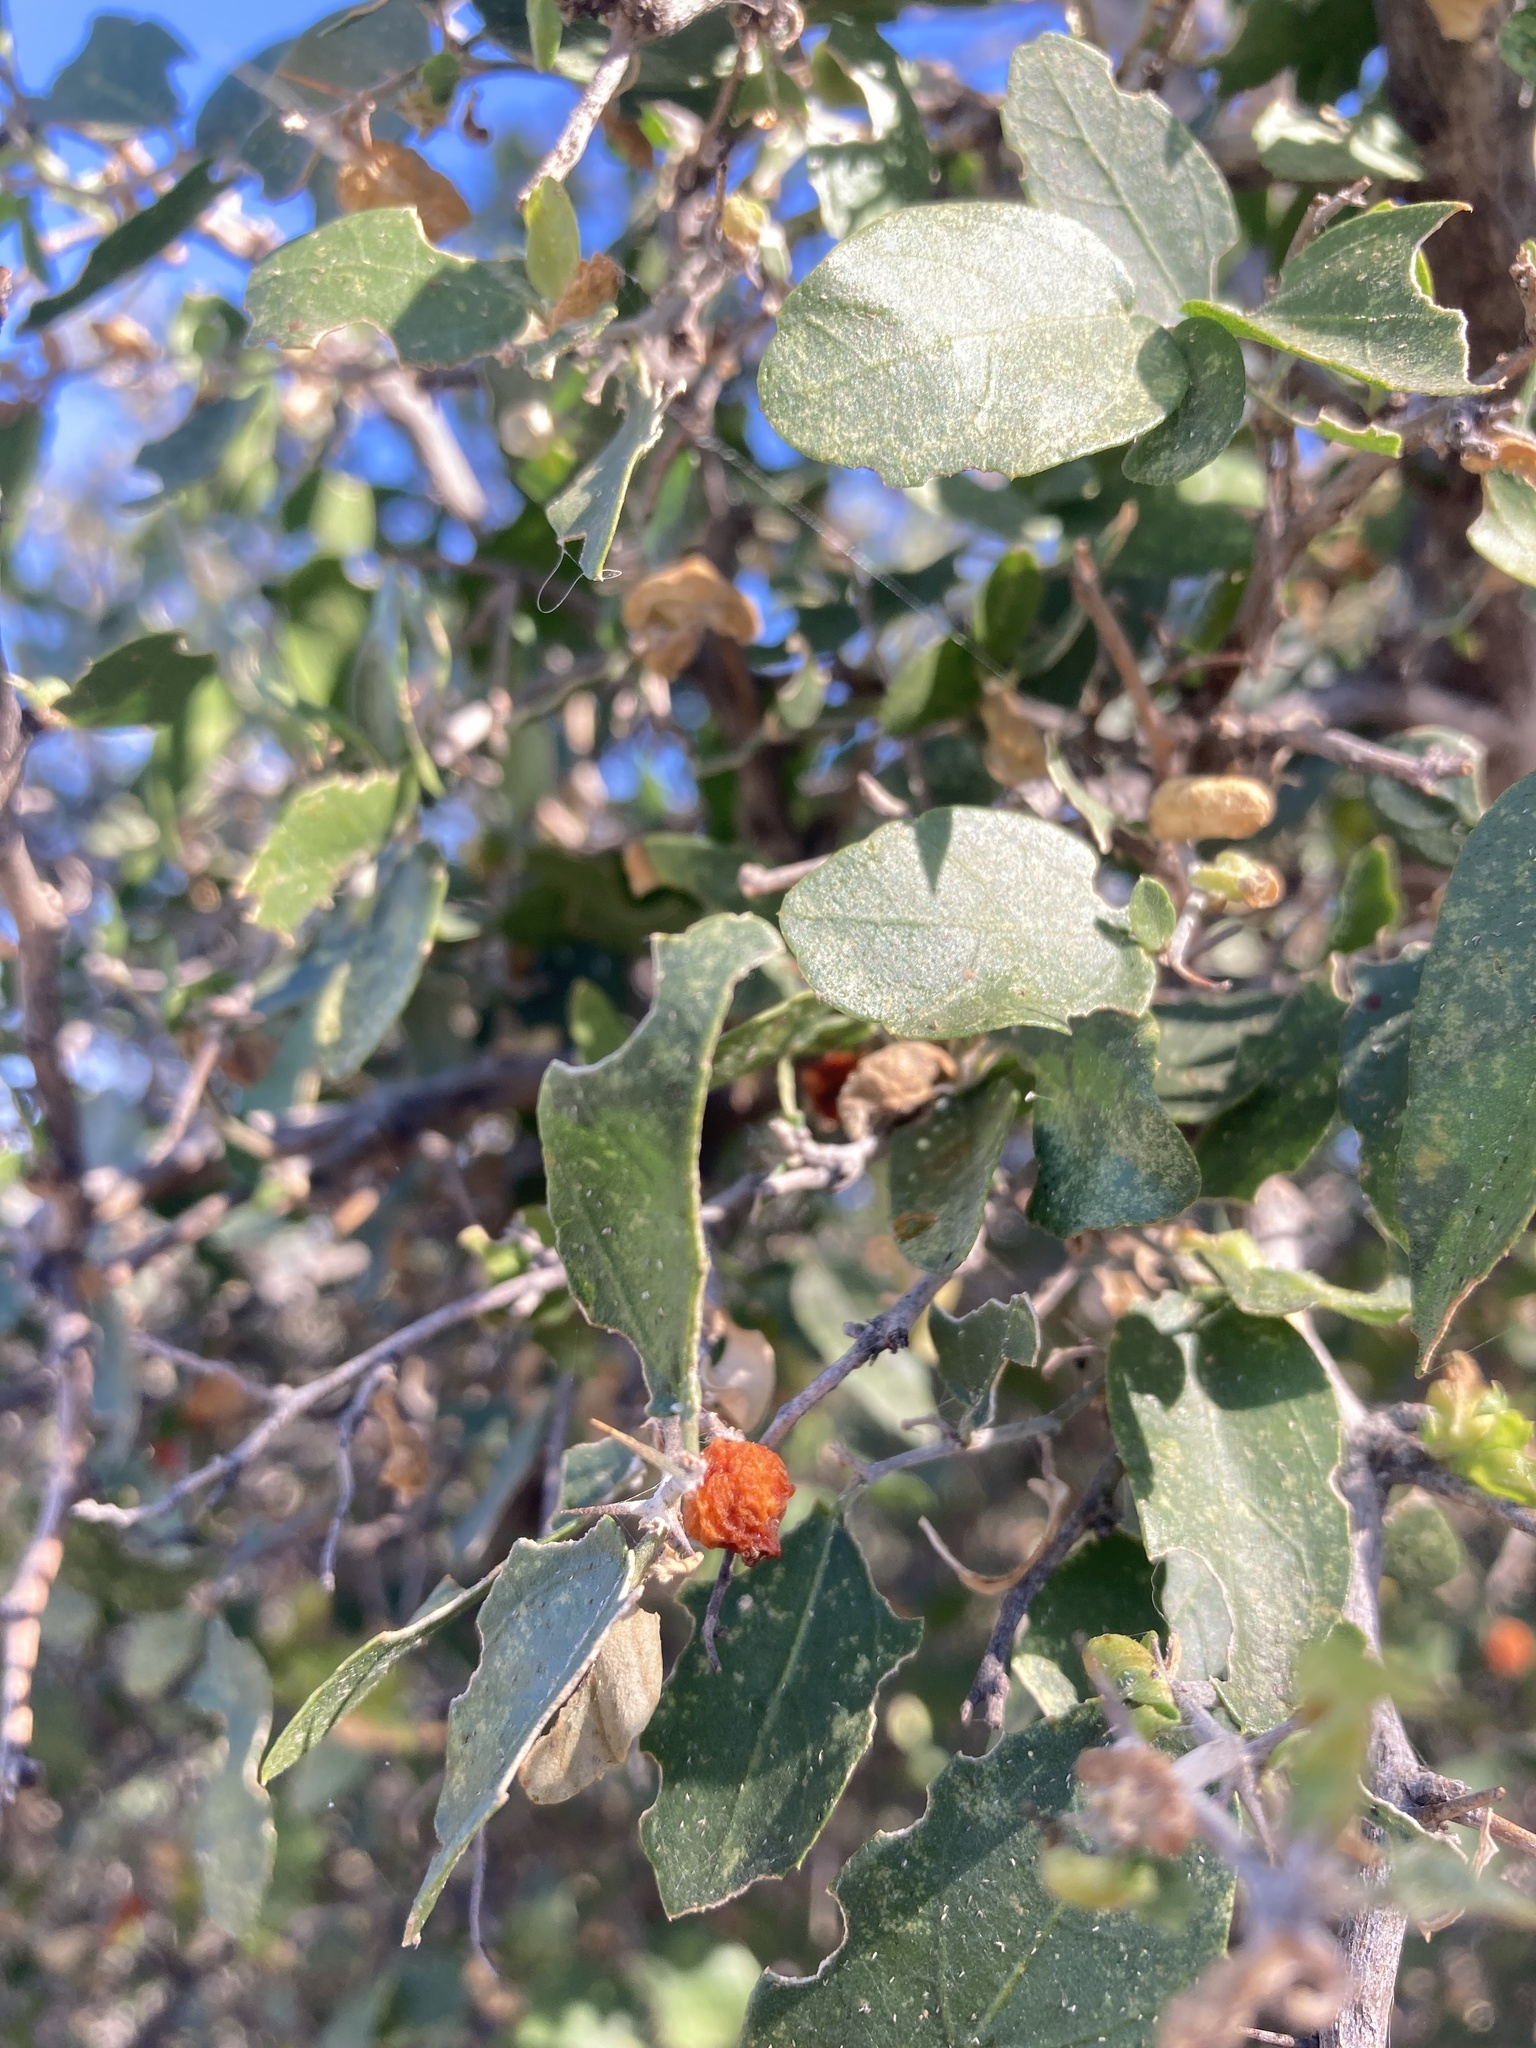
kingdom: Plantae
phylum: Tracheophyta
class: Magnoliopsida
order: Rosales
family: Cannabaceae
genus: Celtis
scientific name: Celtis pallida
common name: Desert hackberry
